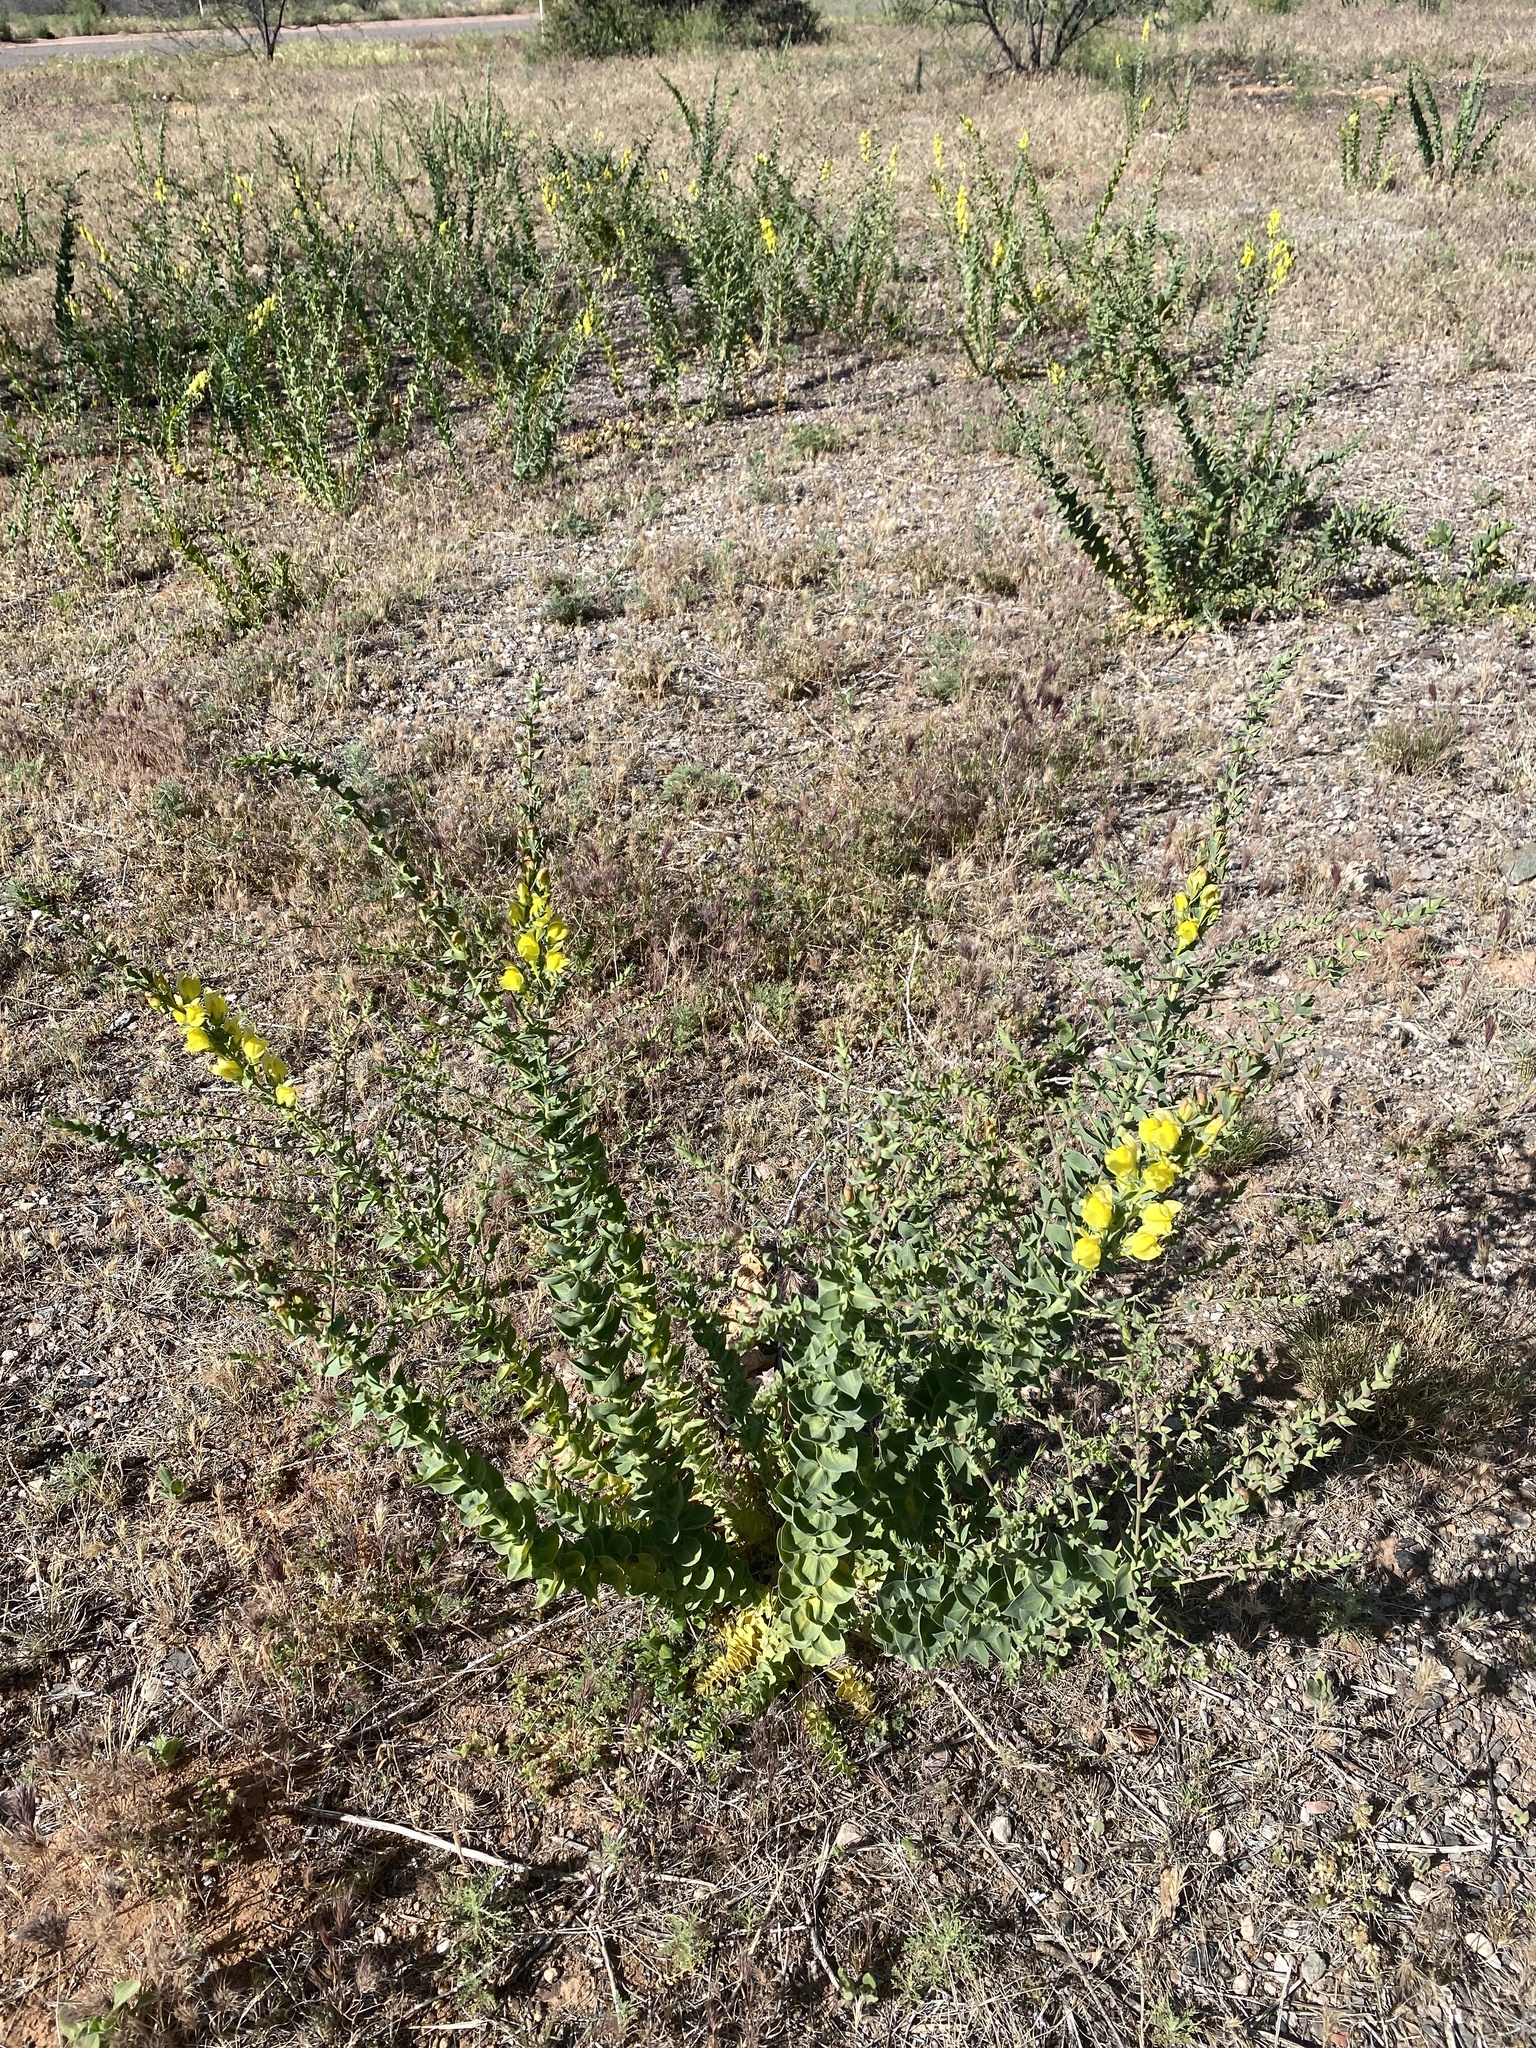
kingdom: Plantae
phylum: Tracheophyta
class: Magnoliopsida
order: Lamiales
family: Plantaginaceae
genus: Linaria
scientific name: Linaria dalmatica
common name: Dalmatian toadflax
